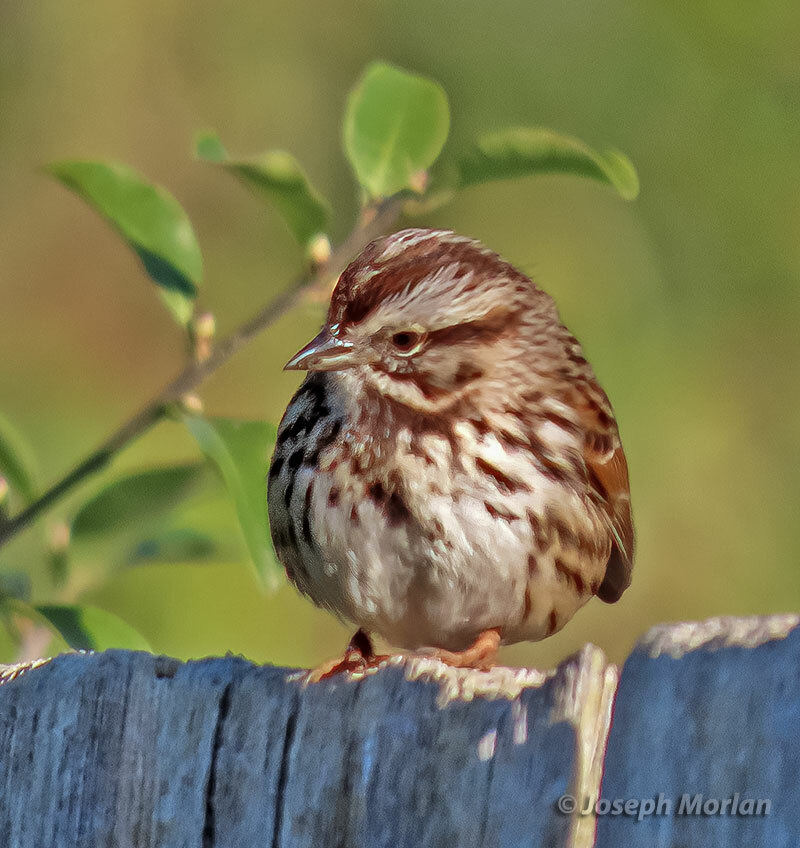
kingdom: Animalia
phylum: Chordata
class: Aves
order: Passeriformes
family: Passerellidae
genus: Melospiza
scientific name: Melospiza melodia
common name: Song sparrow
